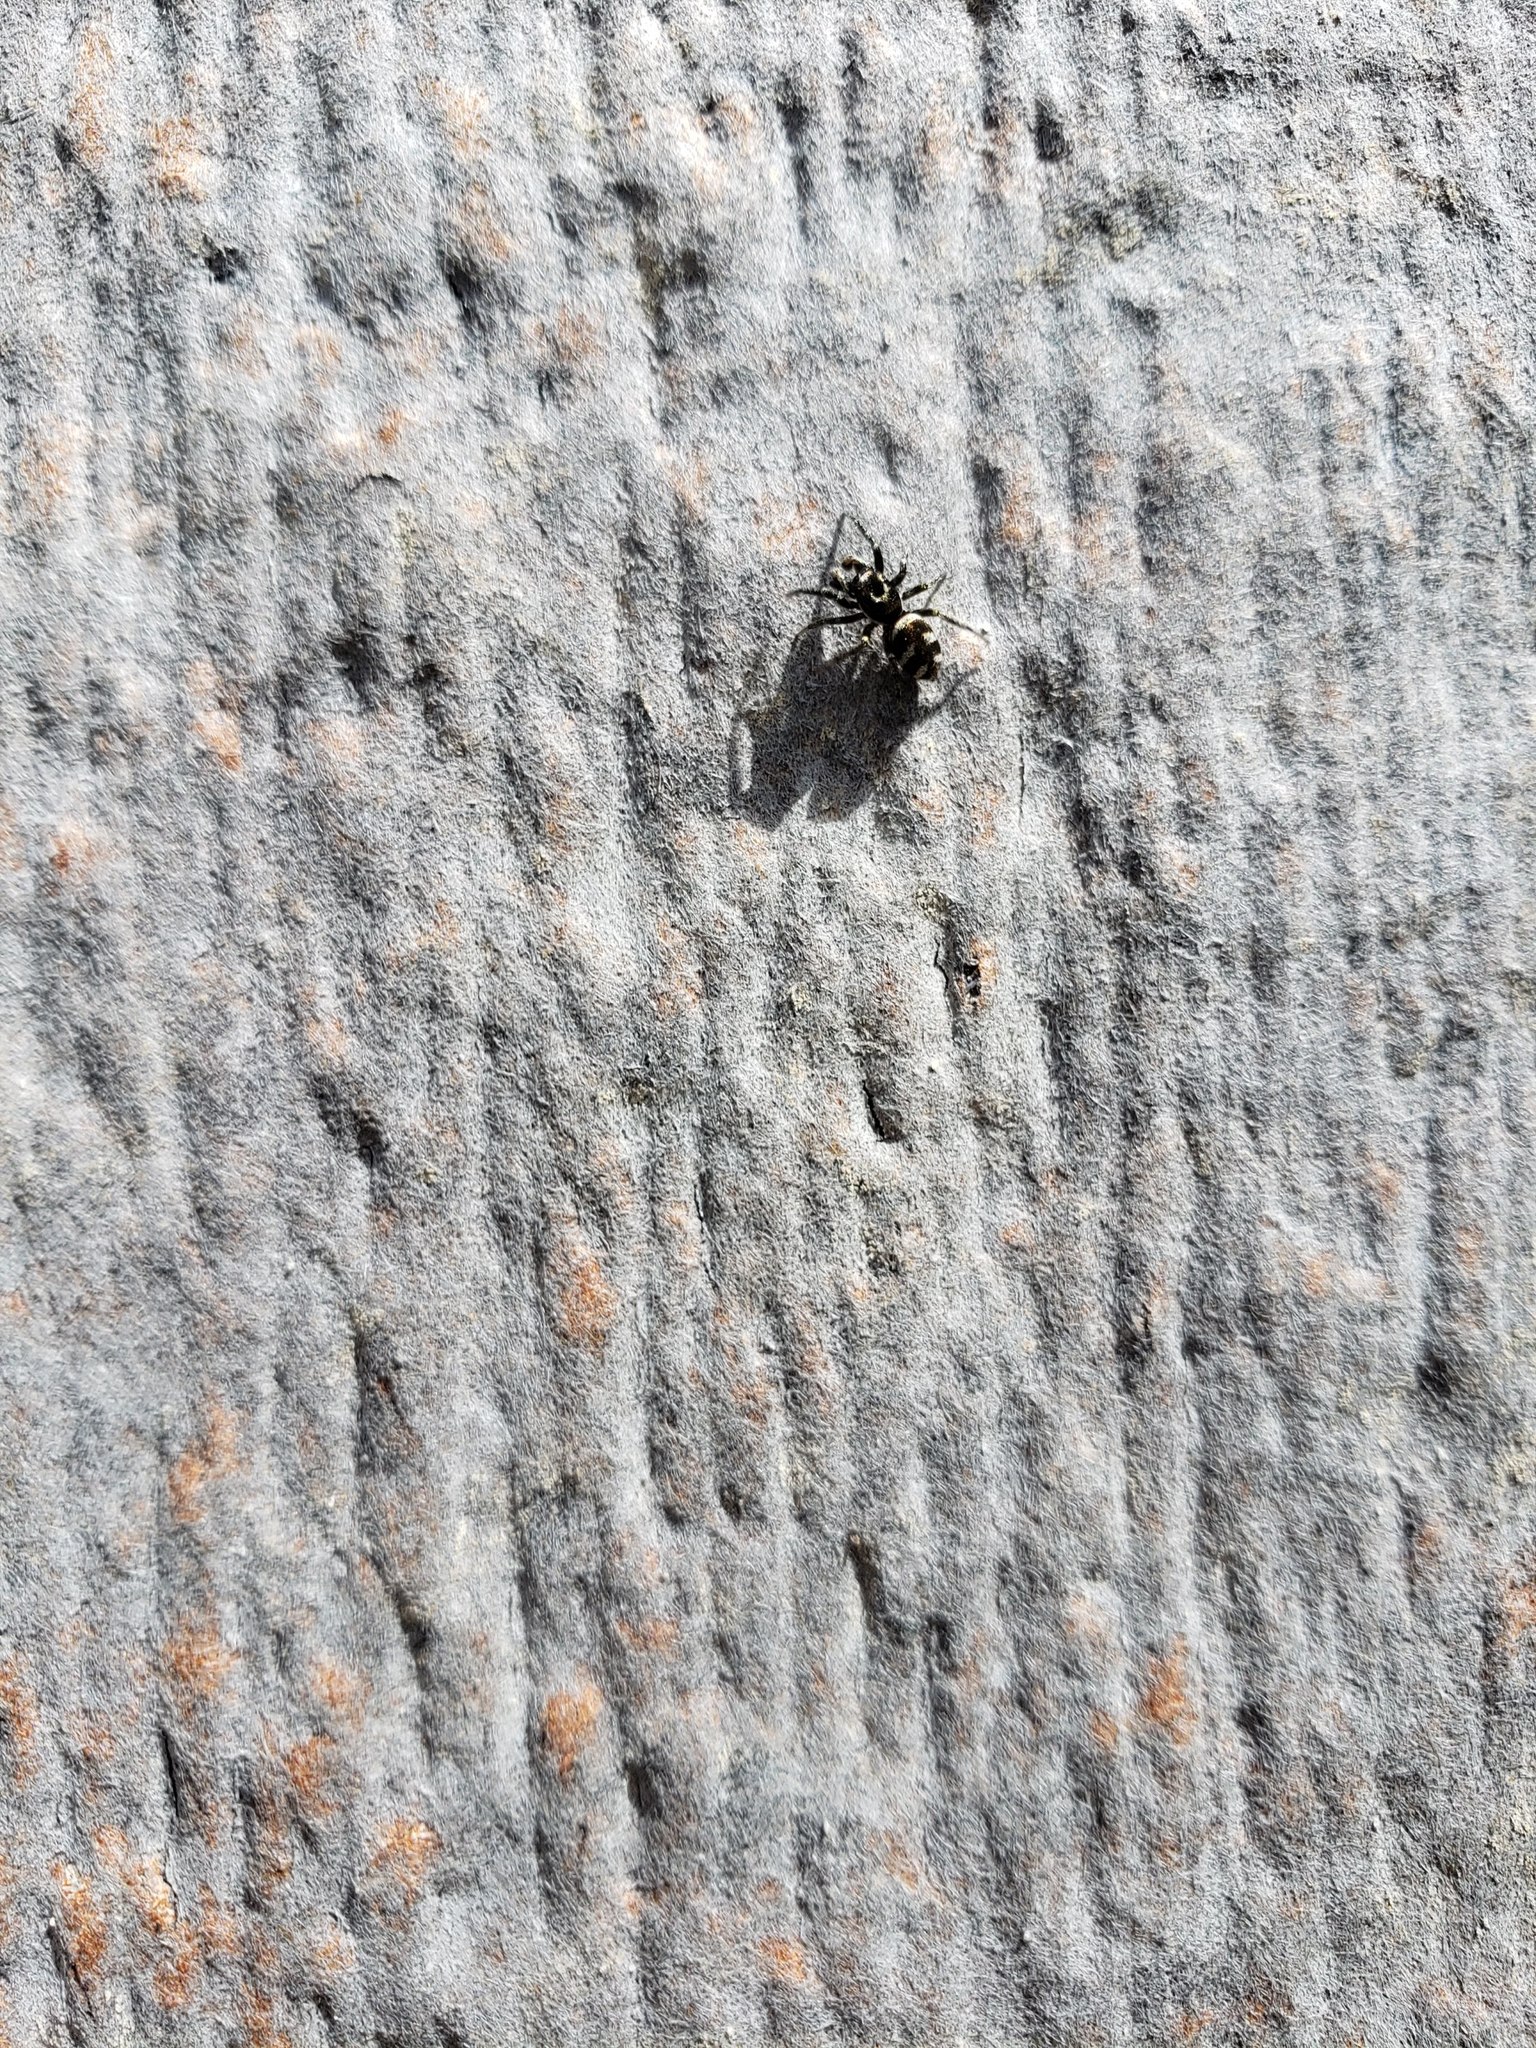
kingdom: Animalia
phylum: Arthropoda
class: Arachnida
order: Araneae
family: Salticidae
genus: Salticus
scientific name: Salticus scenicus
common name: Zebra jumper
